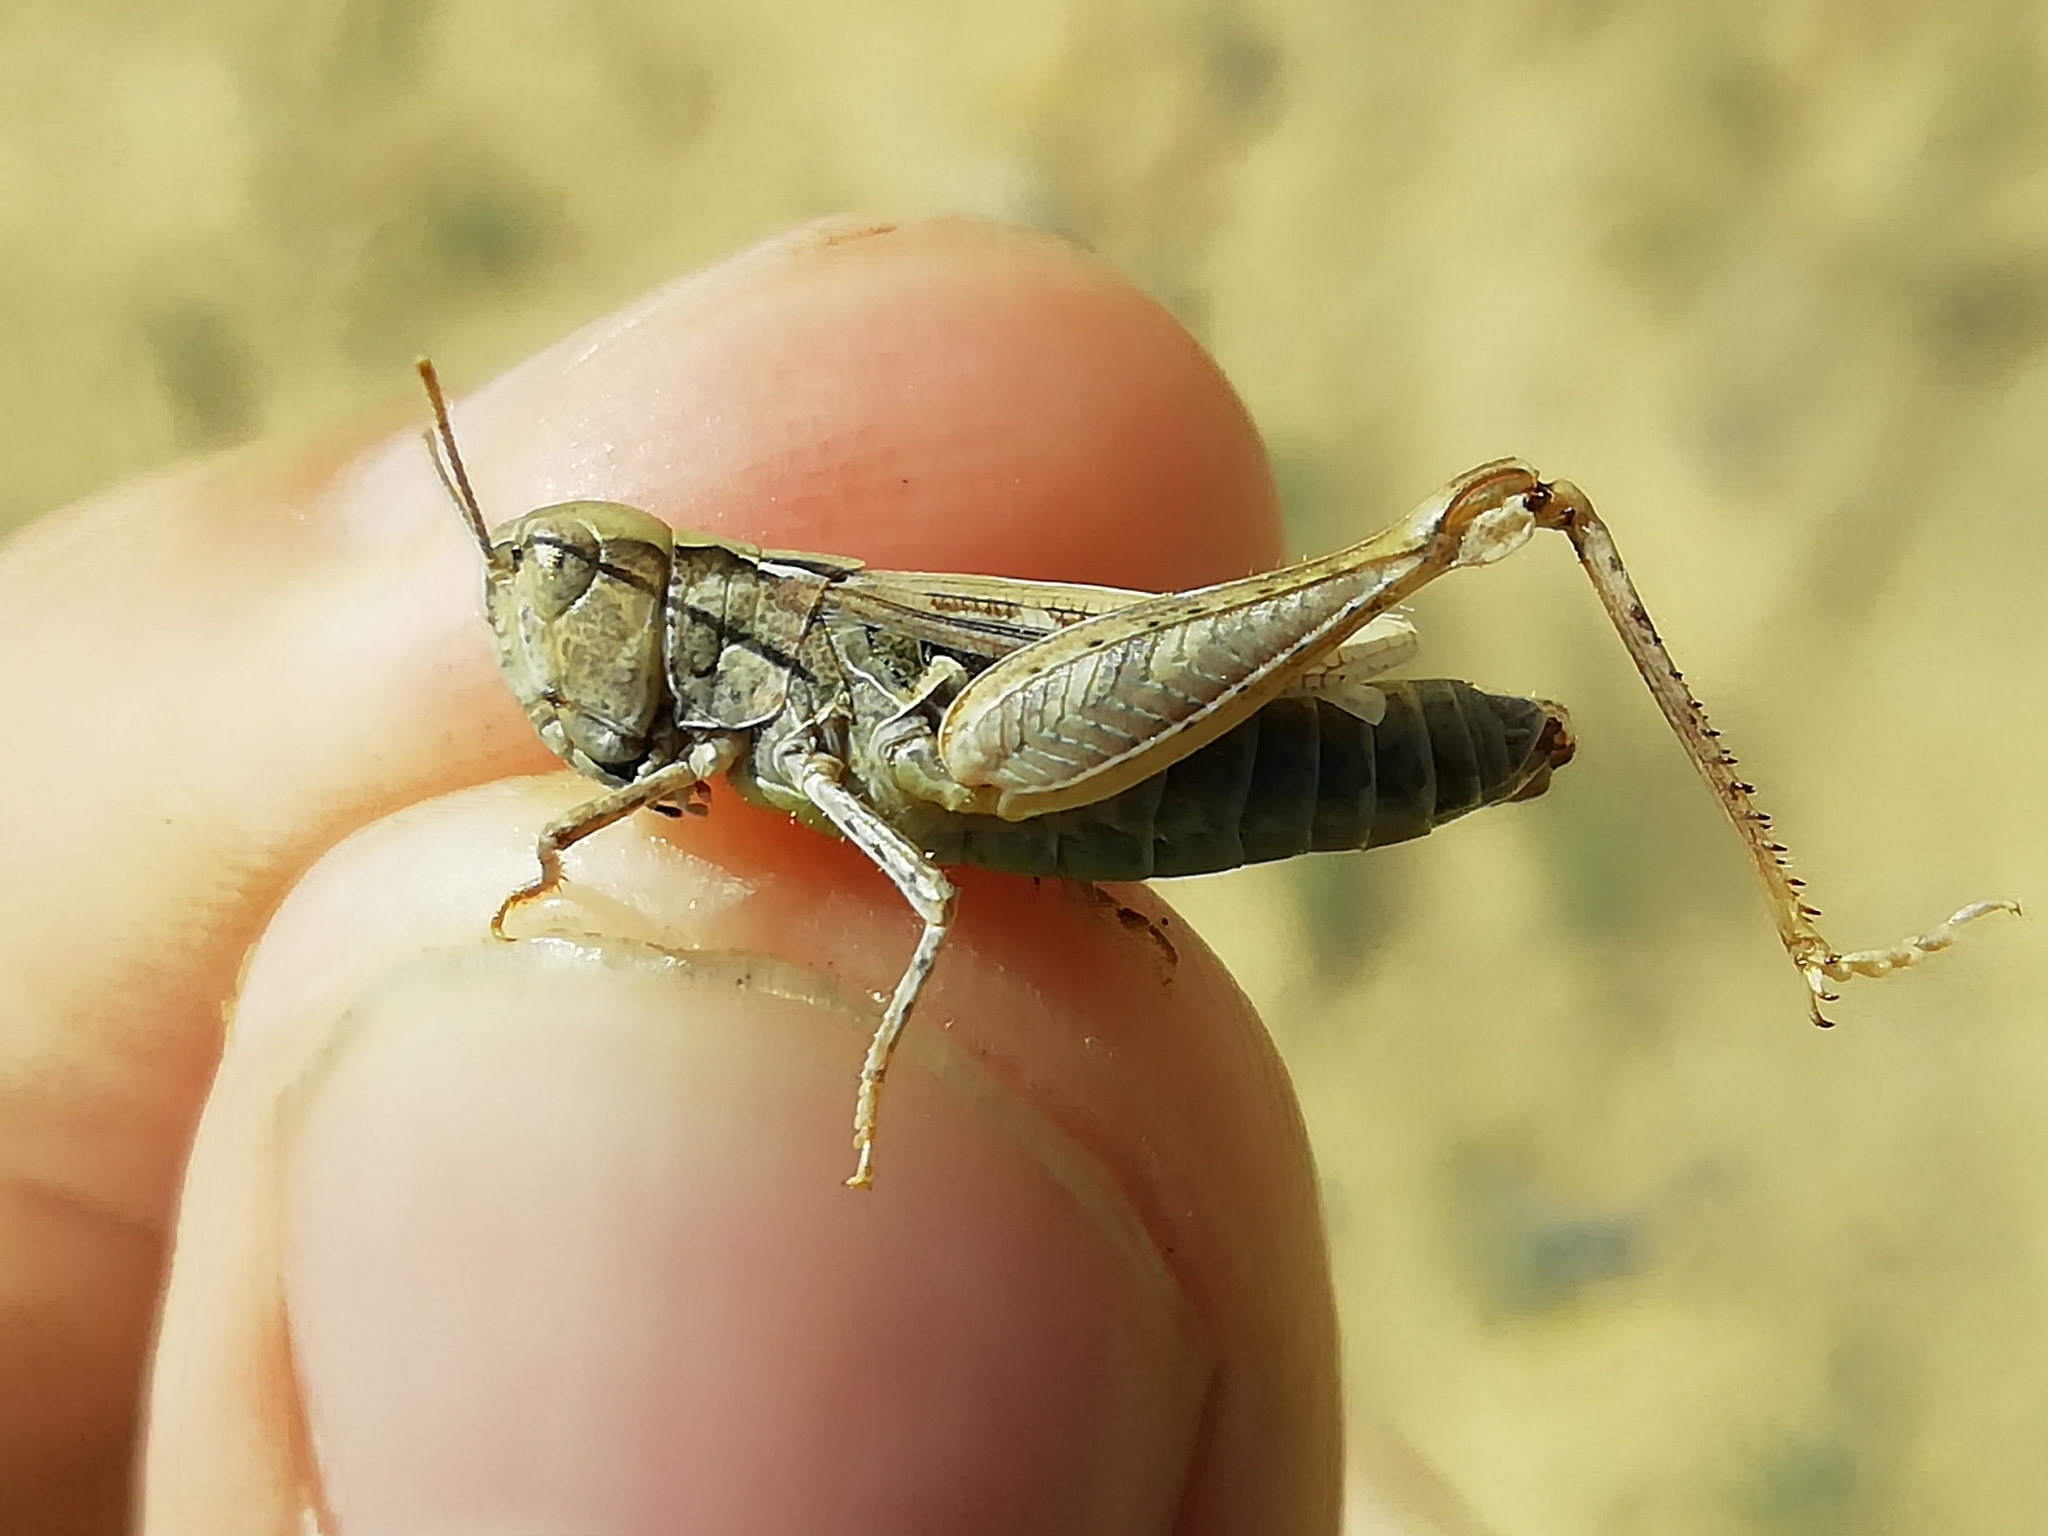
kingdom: Animalia
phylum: Arthropoda
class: Insecta
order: Orthoptera
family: Acrididae
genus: Myrmeleotettix
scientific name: Myrmeleotettix palpalis
